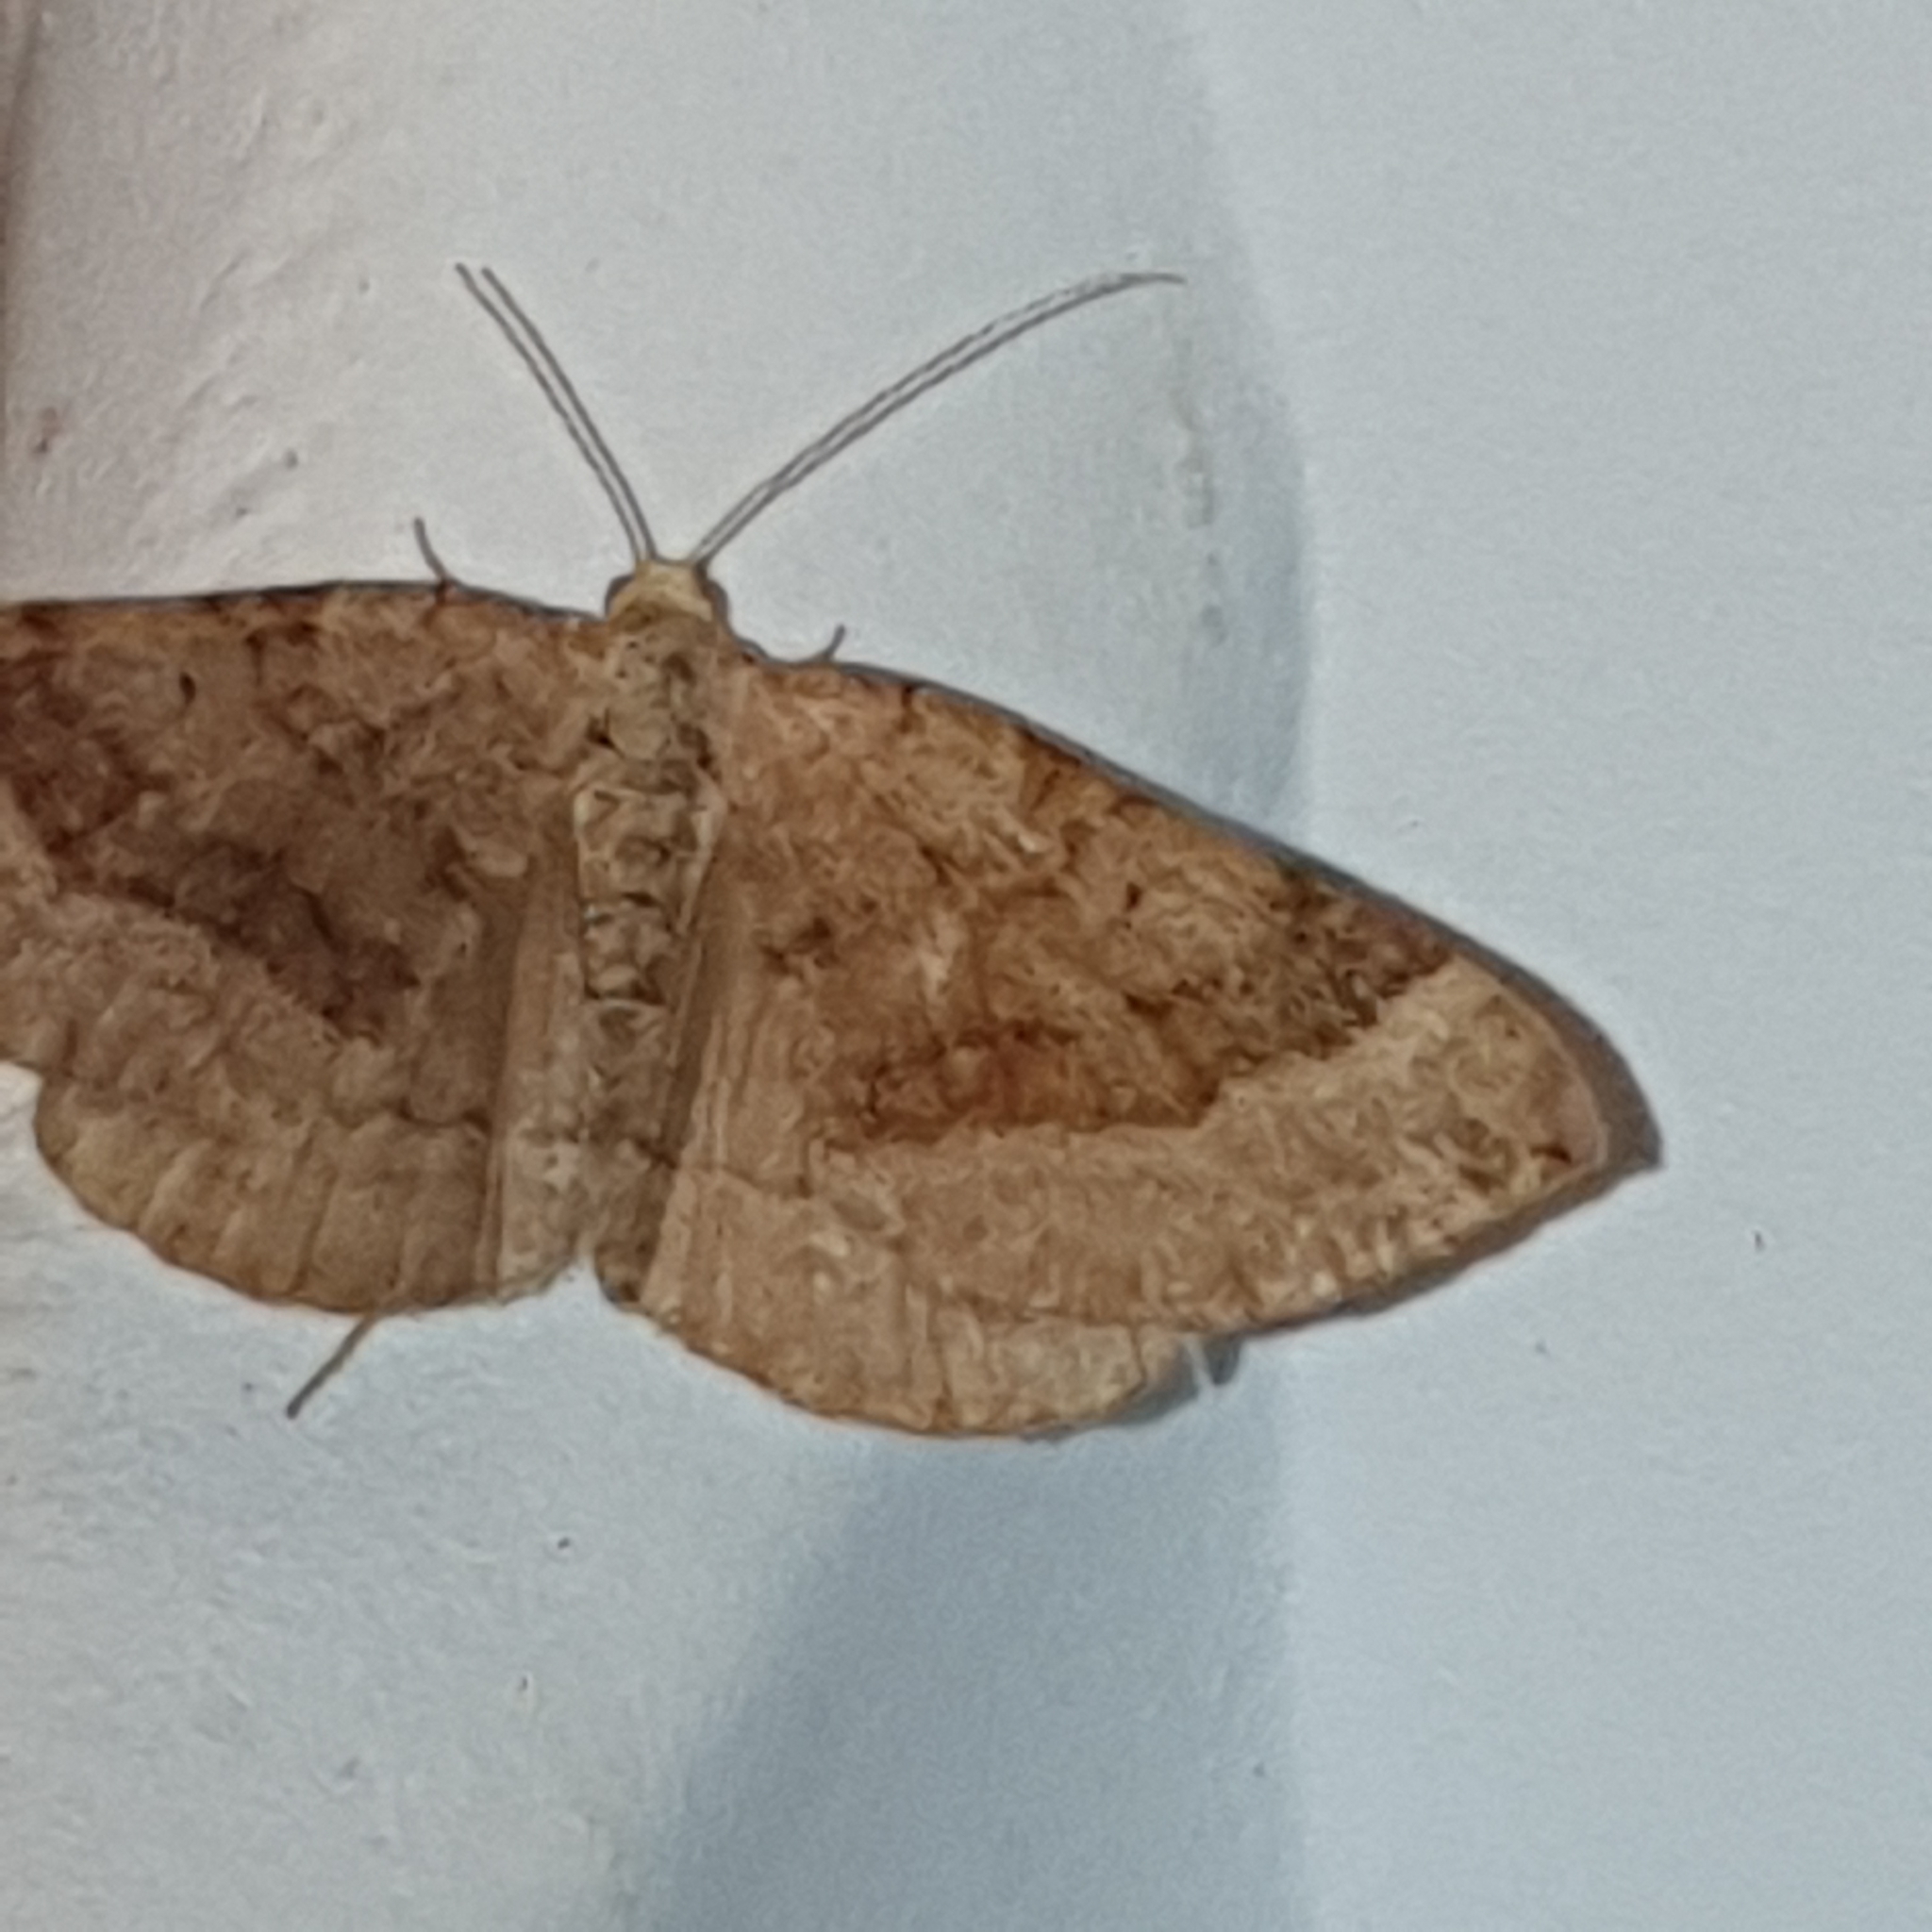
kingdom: Animalia
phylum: Arthropoda
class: Insecta
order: Lepidoptera
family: Geometridae
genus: Scotopteryx
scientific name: Scotopteryx chenopodiata
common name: Shaded broad-bar
